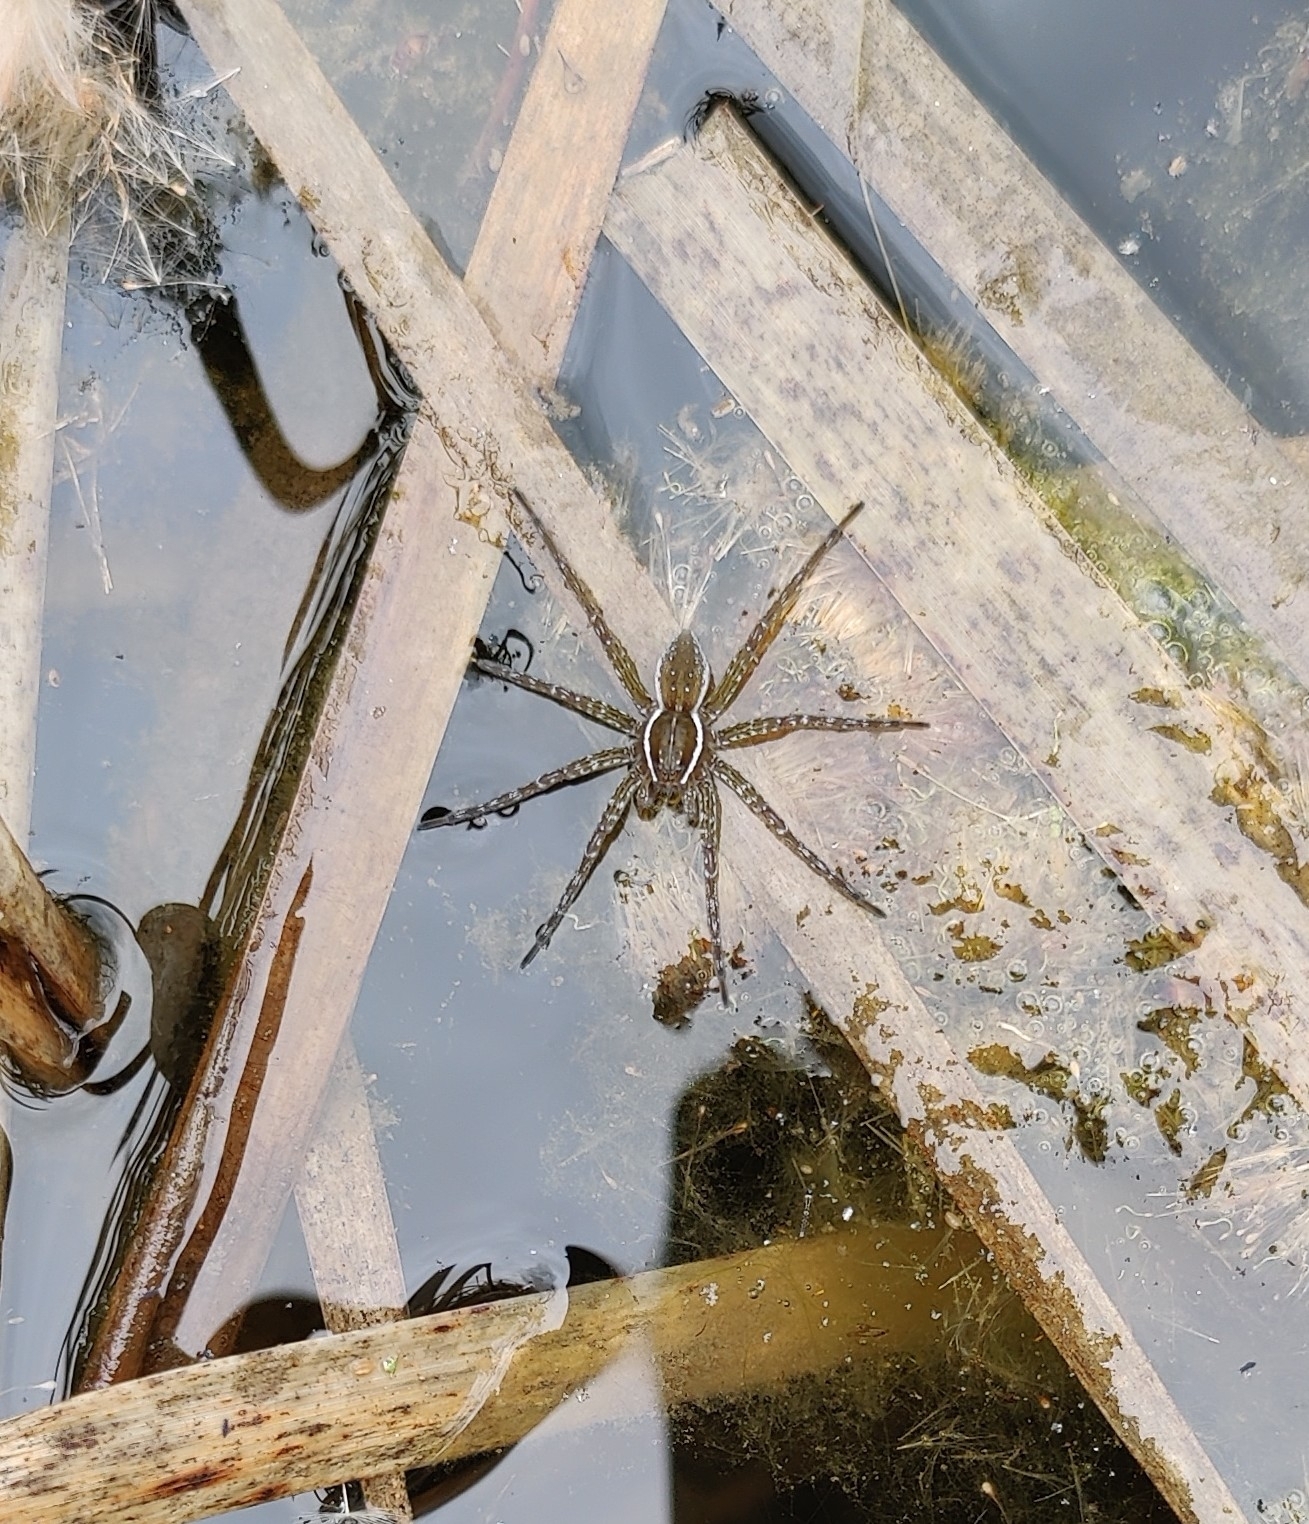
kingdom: Animalia
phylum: Arthropoda
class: Arachnida
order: Araneae
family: Pisauridae
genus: Dolomedes
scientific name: Dolomedes triton
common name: Six-spotted fishing spider
